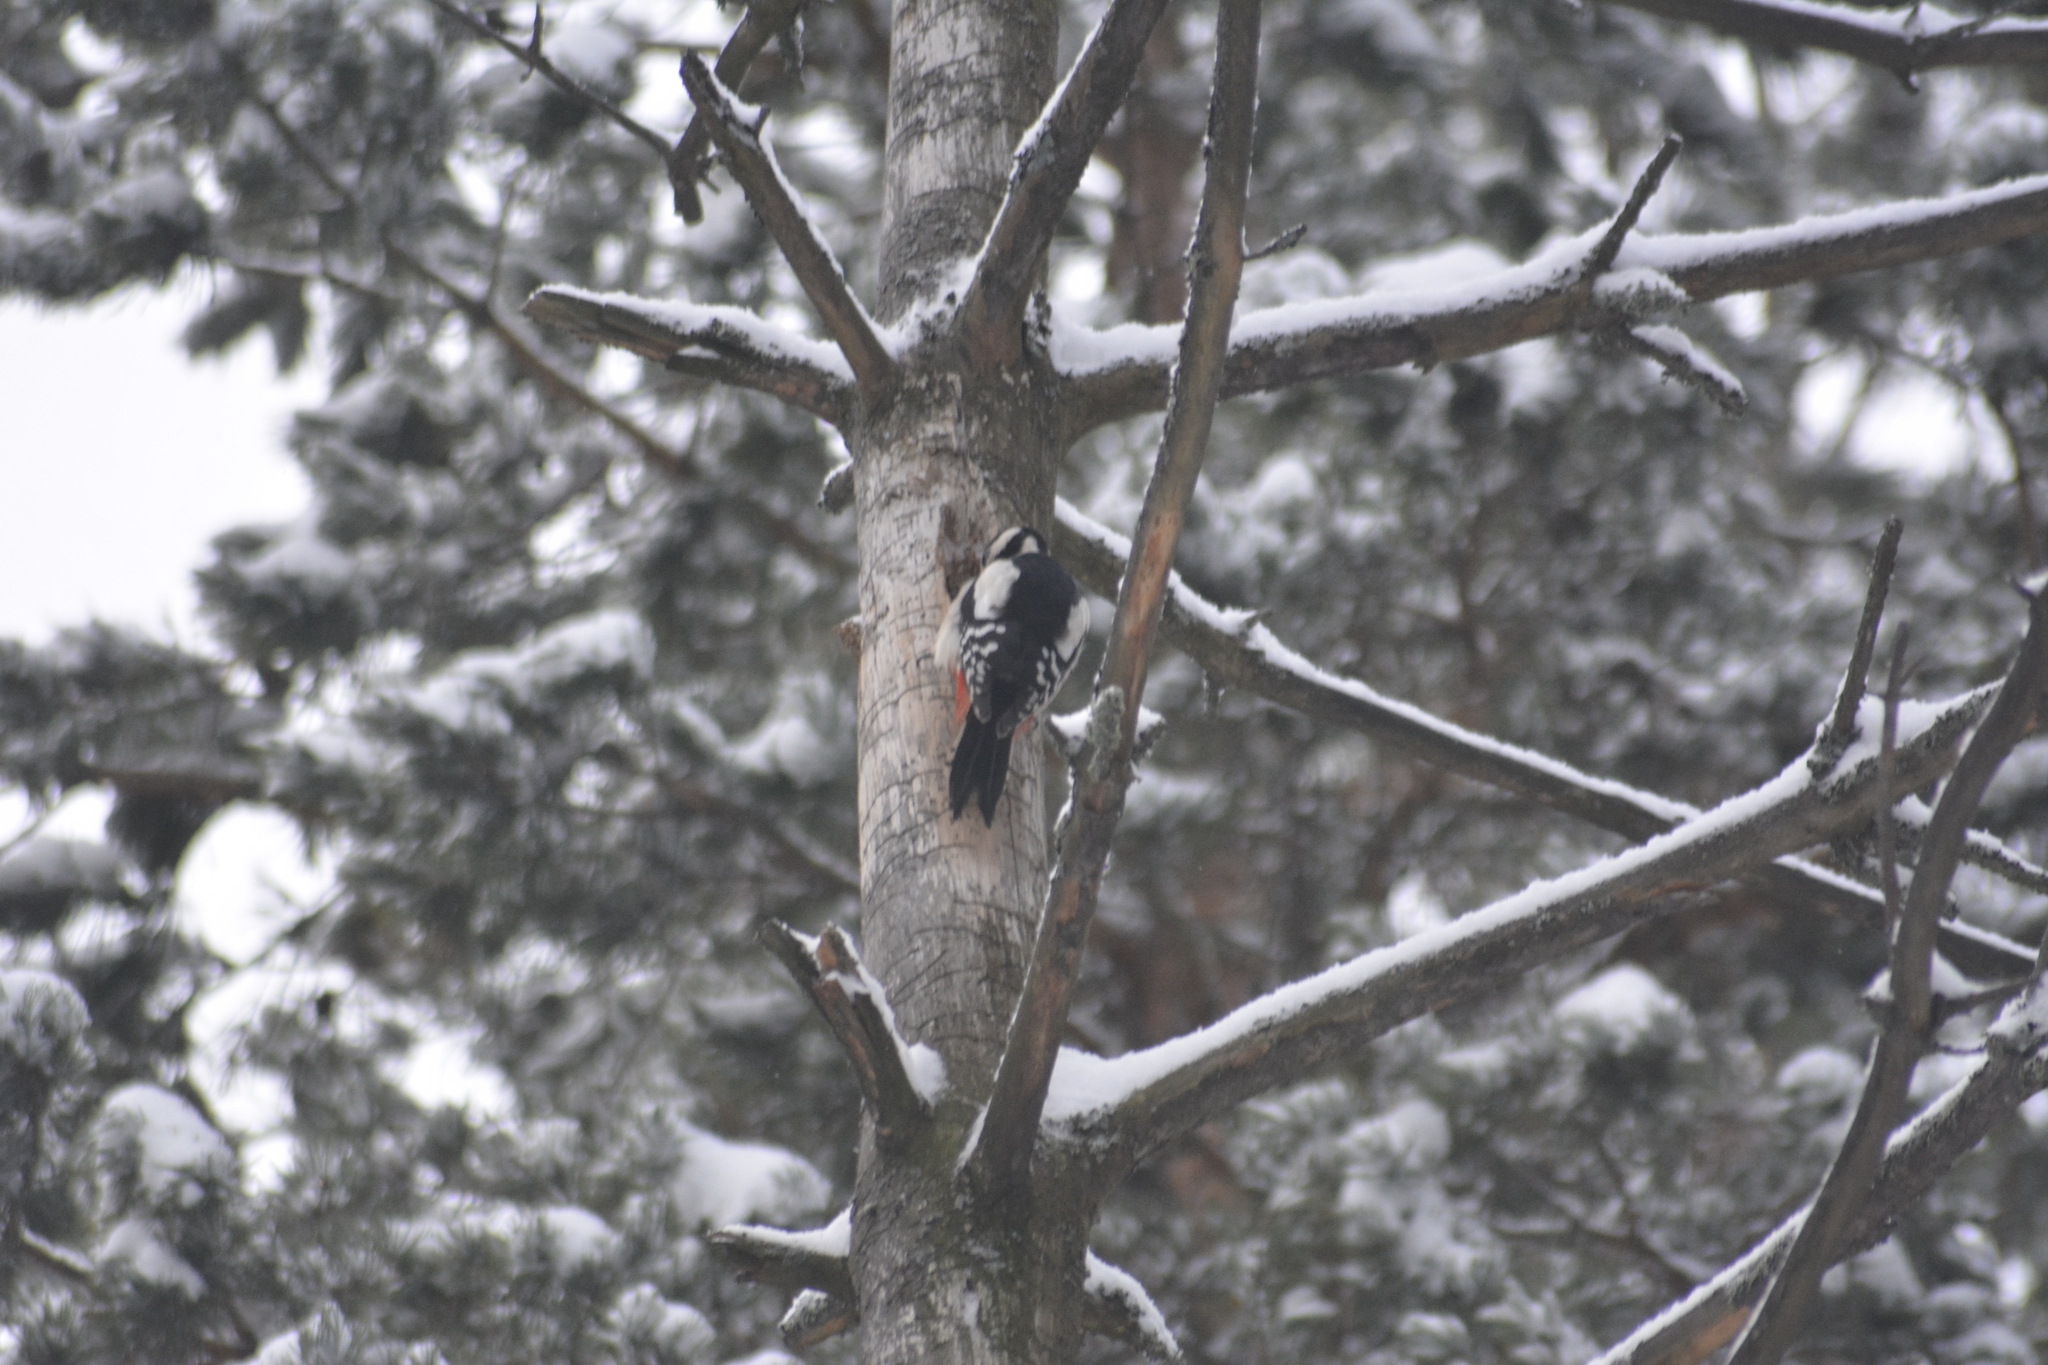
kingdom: Animalia
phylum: Chordata
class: Aves
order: Piciformes
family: Picidae
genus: Dendrocopos
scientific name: Dendrocopos major
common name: Great spotted woodpecker
